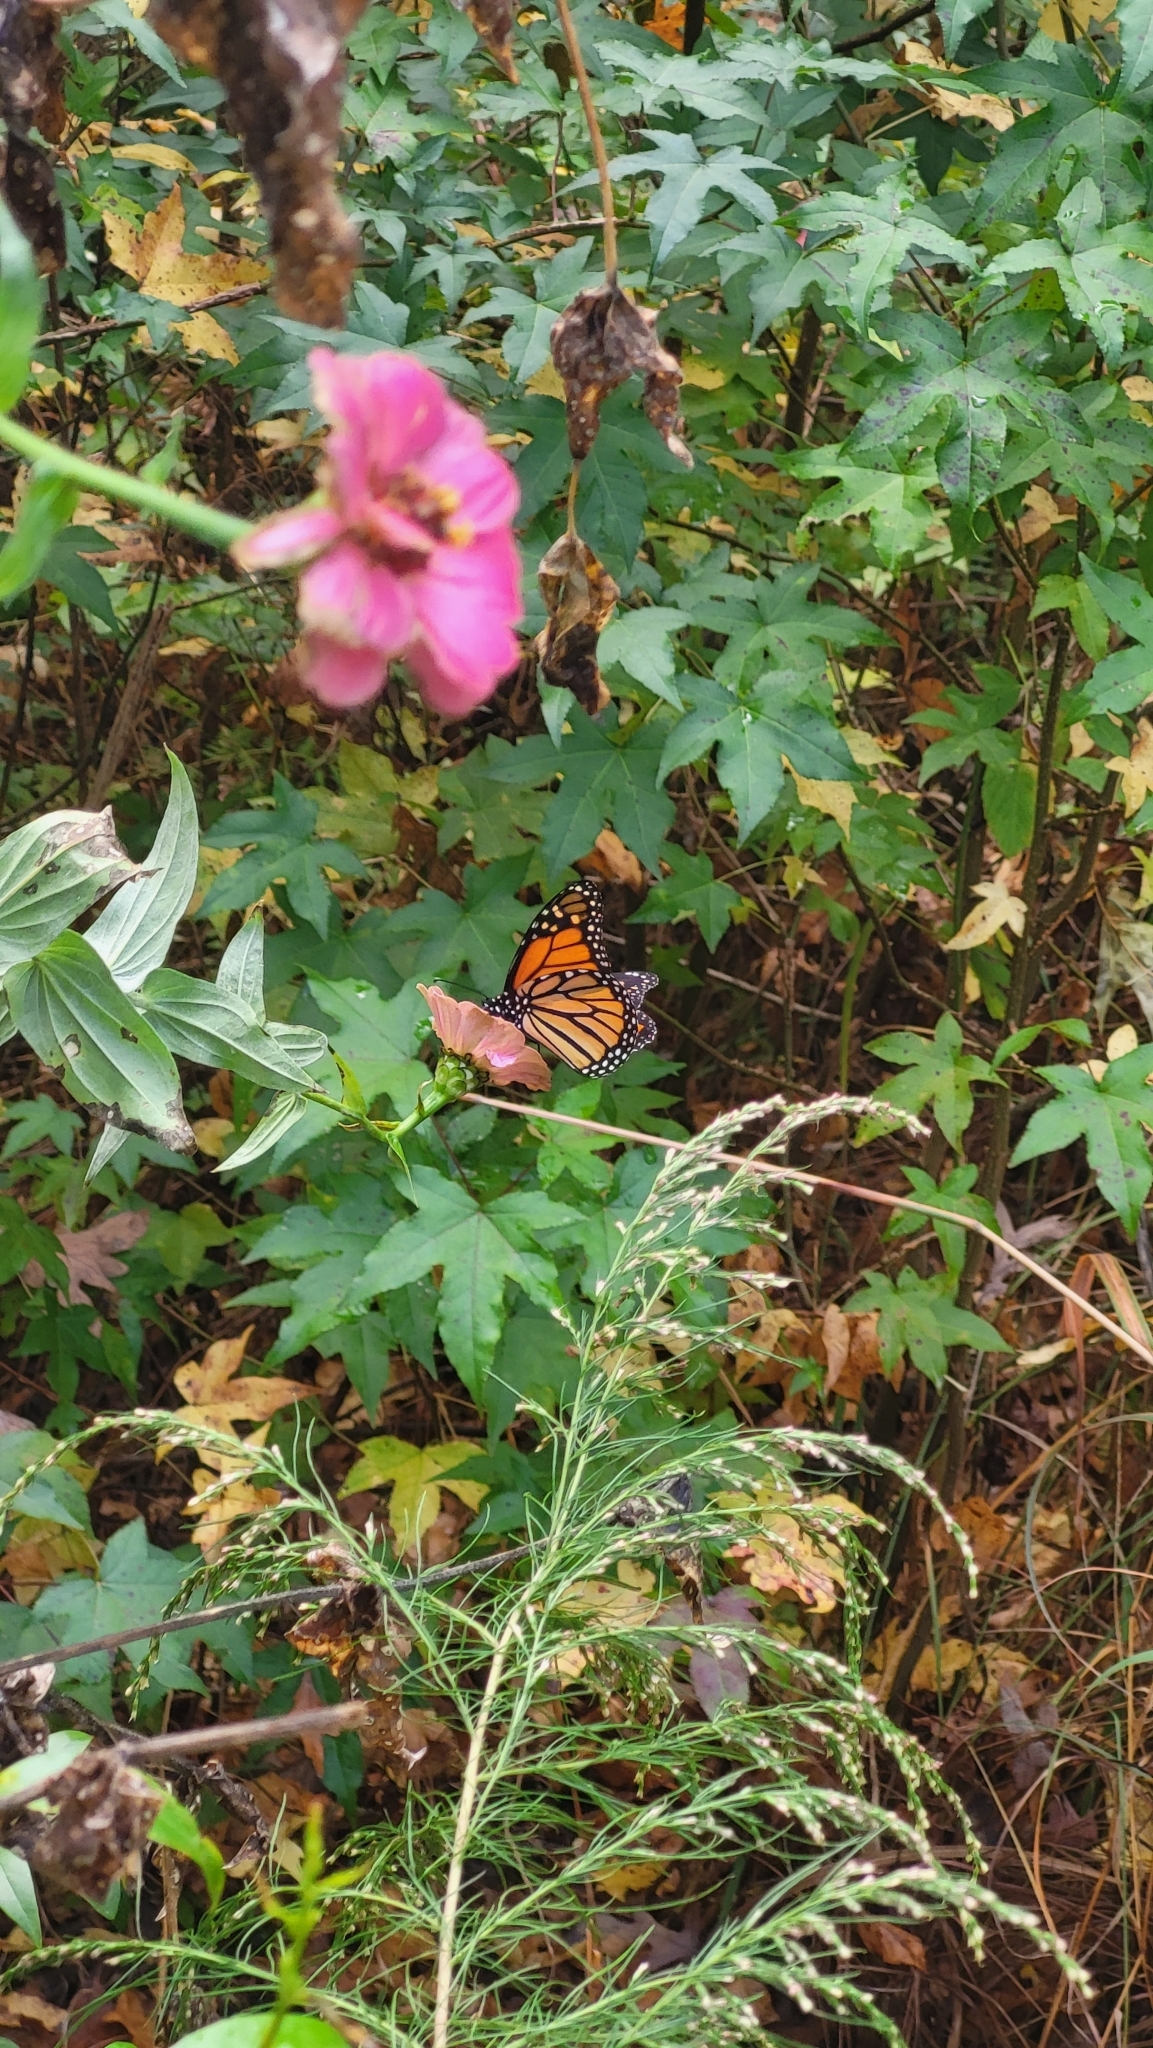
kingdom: Animalia
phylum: Arthropoda
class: Insecta
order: Lepidoptera
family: Nymphalidae
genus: Danaus
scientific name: Danaus plexippus
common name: Monarch
